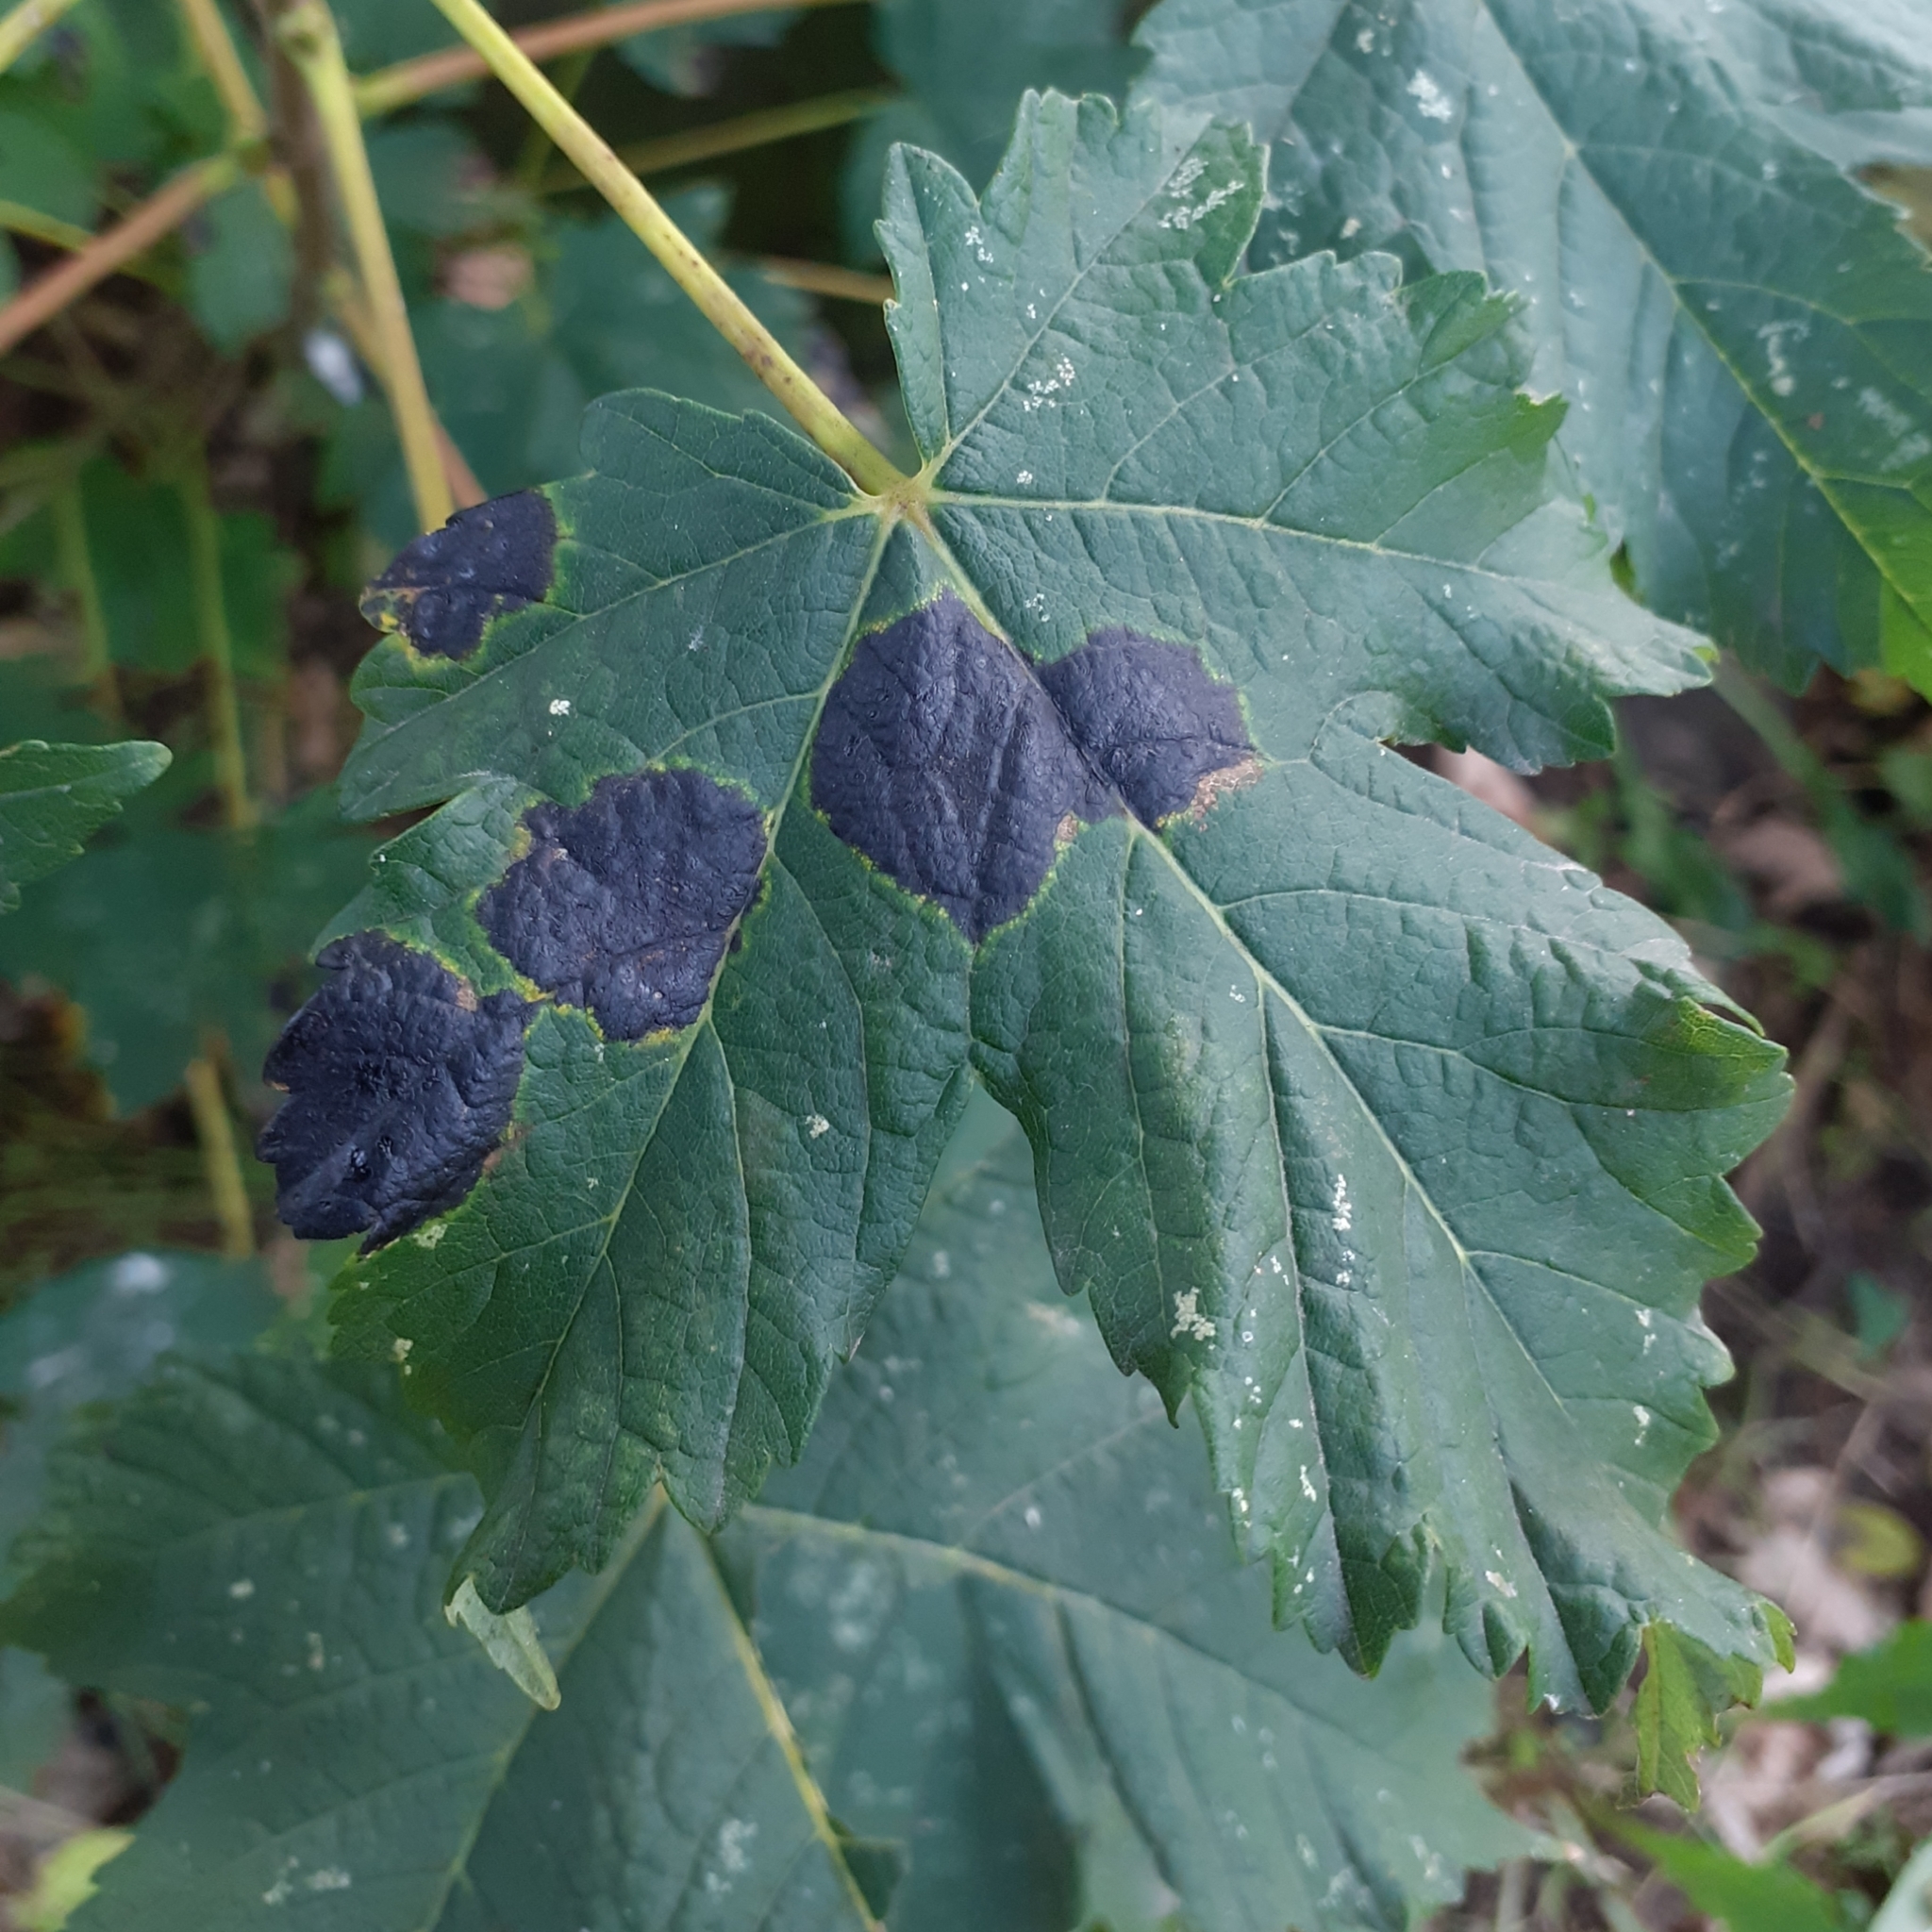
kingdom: Fungi
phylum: Ascomycota
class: Leotiomycetes
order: Rhytismatales
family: Rhytismataceae
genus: Rhytisma
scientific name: Rhytisma acerinum
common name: European tar spot
